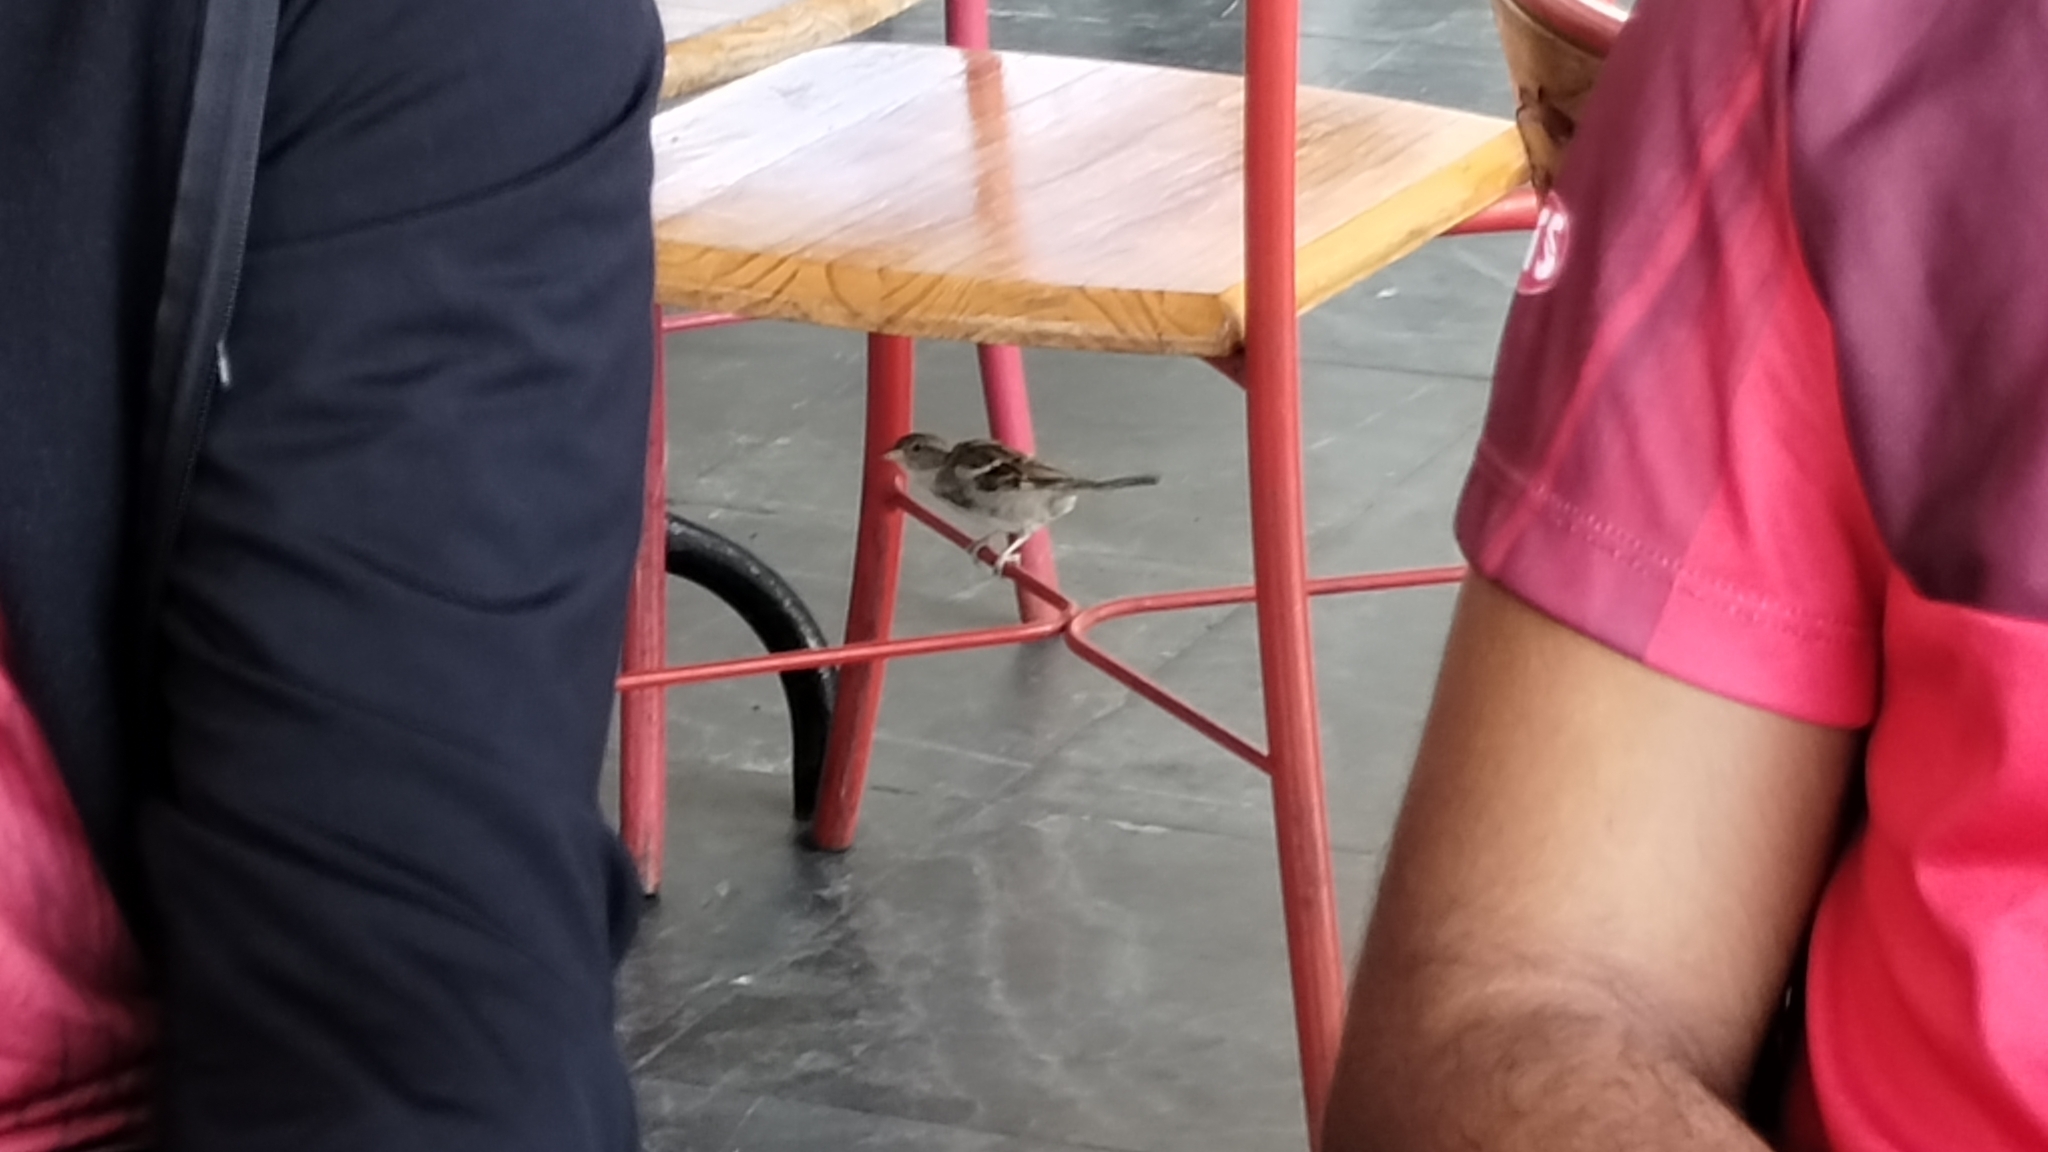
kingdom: Animalia
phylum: Chordata
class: Aves
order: Passeriformes
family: Passeridae
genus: Passer
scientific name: Passer domesticus
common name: House sparrow
